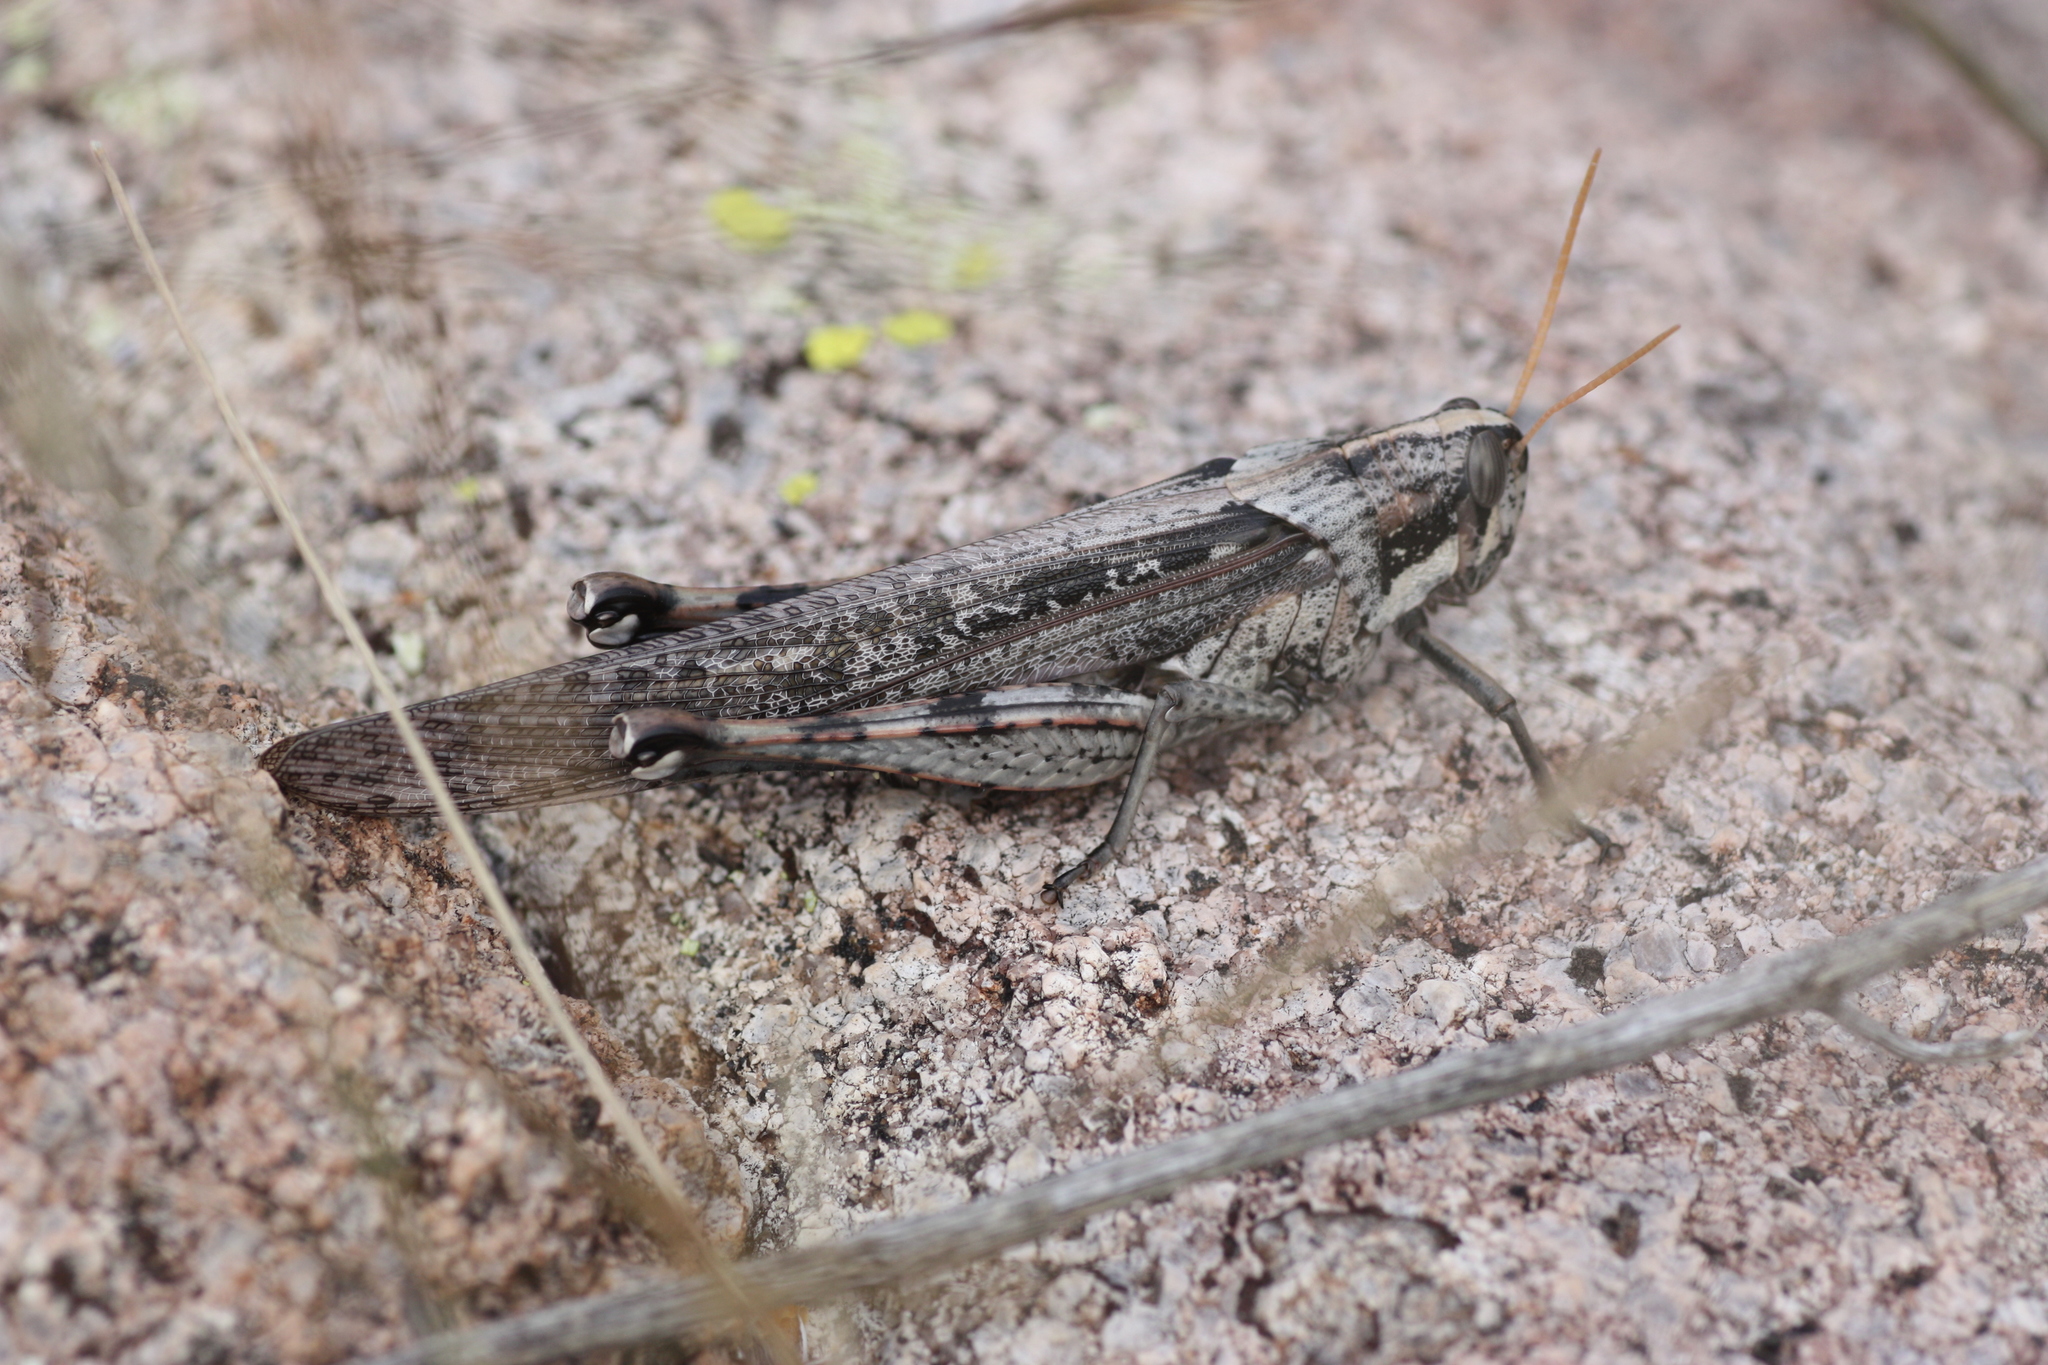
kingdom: Animalia
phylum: Arthropoda
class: Insecta
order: Orthoptera
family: Acrididae
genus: Schistocerca
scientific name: Schistocerca nitens
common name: Vagrant grasshopper
